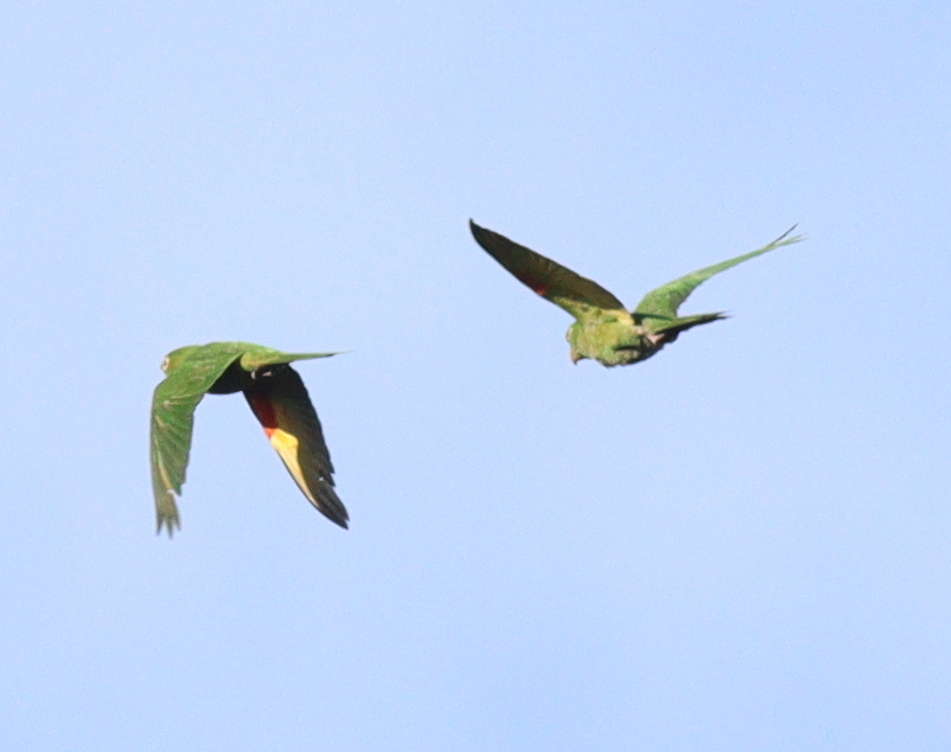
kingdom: Animalia
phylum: Chordata
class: Aves
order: Psittaciformes
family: Psittacidae
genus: Aratinga
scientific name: Aratinga leucophthalma
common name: White-eyed parakeet
